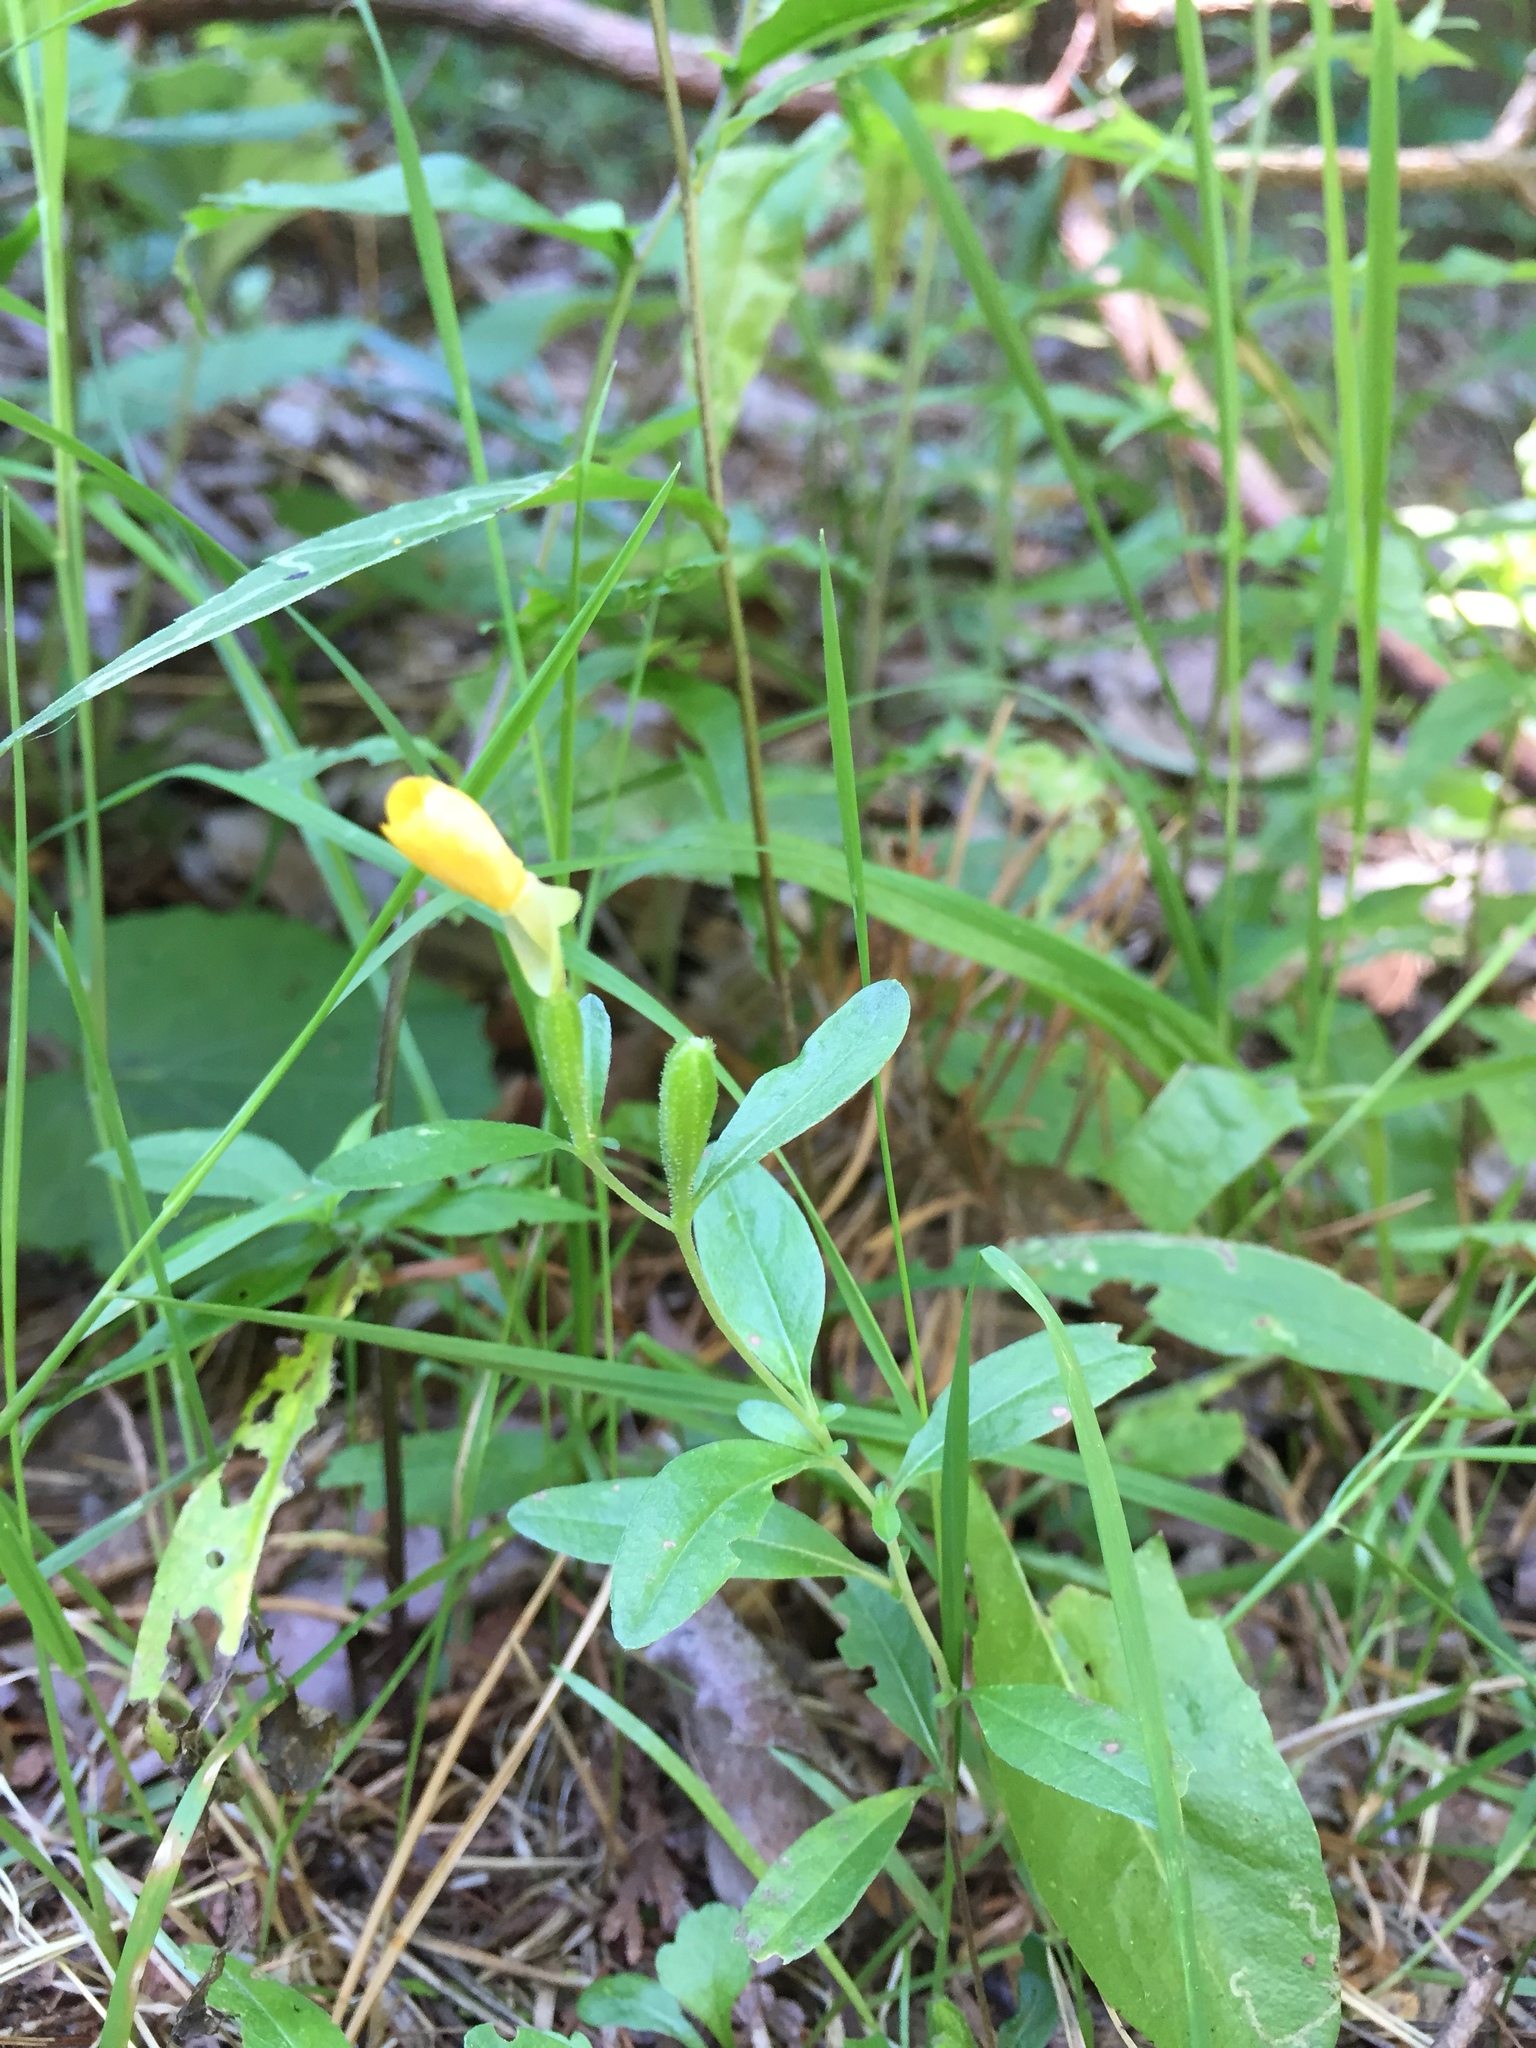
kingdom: Plantae
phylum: Tracheophyta
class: Magnoliopsida
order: Myrtales
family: Onagraceae
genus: Oenothera
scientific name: Oenothera perennis
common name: Small sundrops
